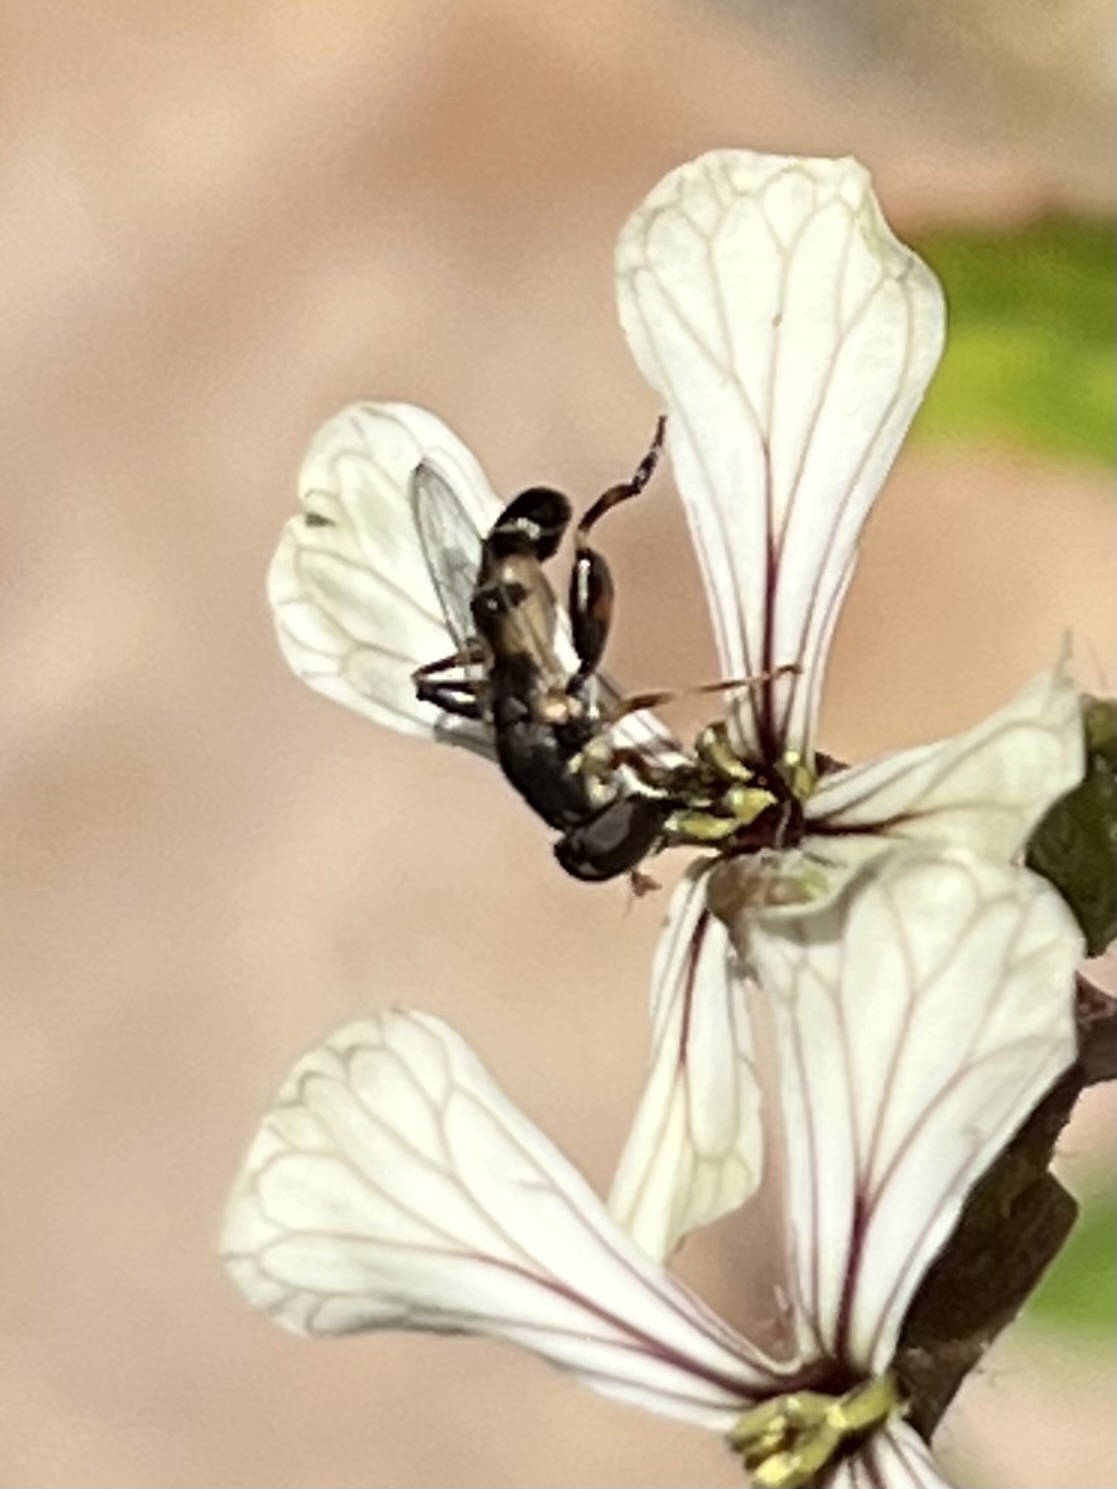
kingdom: Animalia
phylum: Arthropoda
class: Insecta
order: Diptera
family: Syrphidae
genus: Syritta
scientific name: Syritta pipiens
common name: Hover fly
